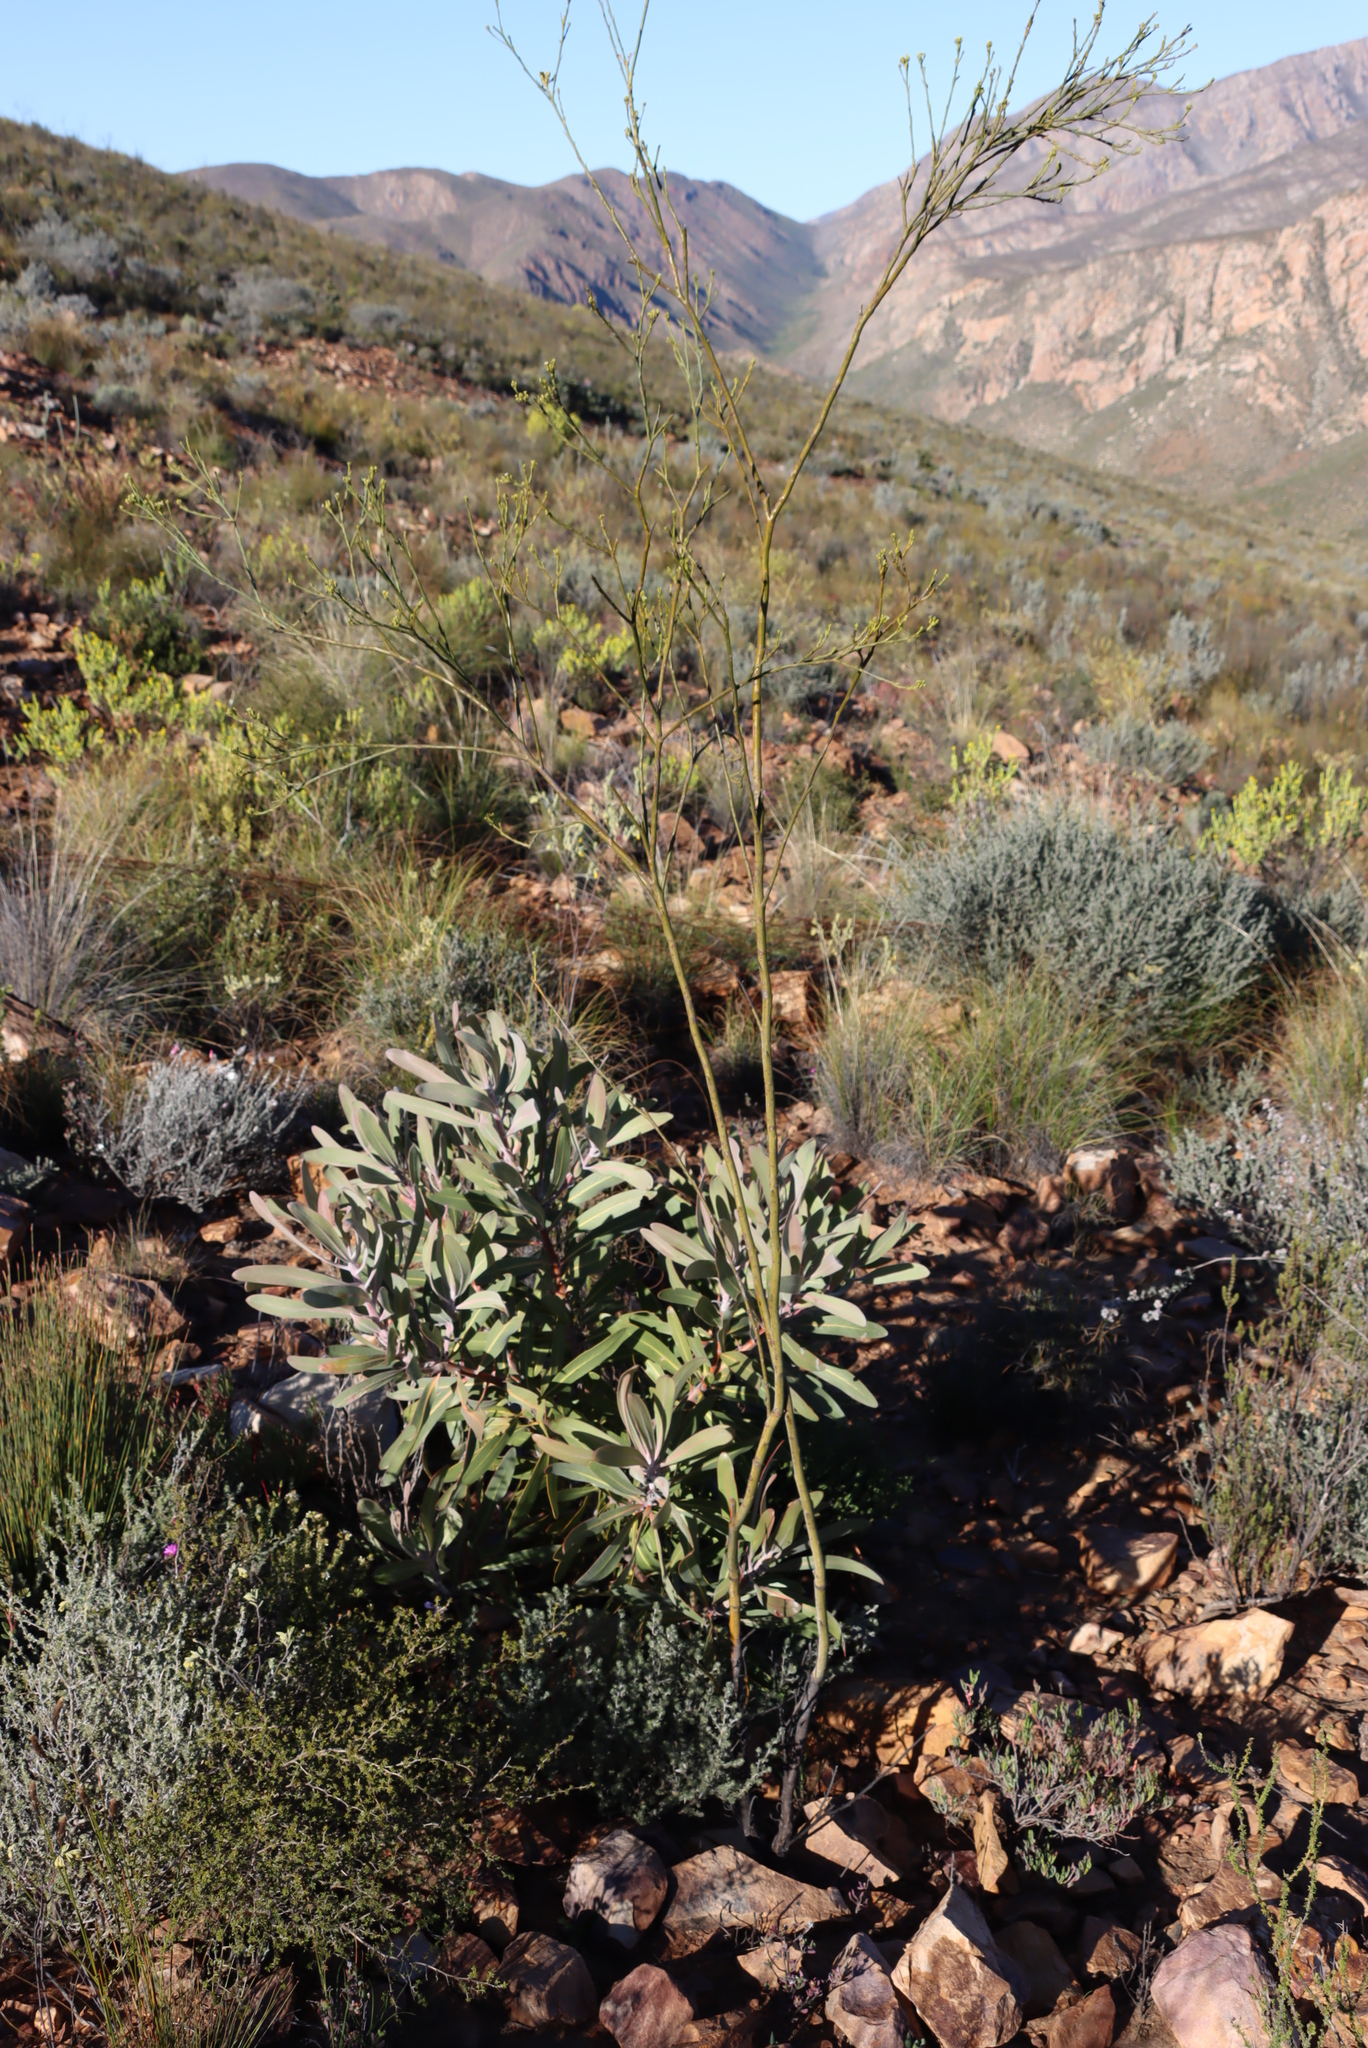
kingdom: Plantae
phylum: Tracheophyta
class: Magnoliopsida
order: Santalales
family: Thesiaceae
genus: Thesium
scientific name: Thesium strictum
